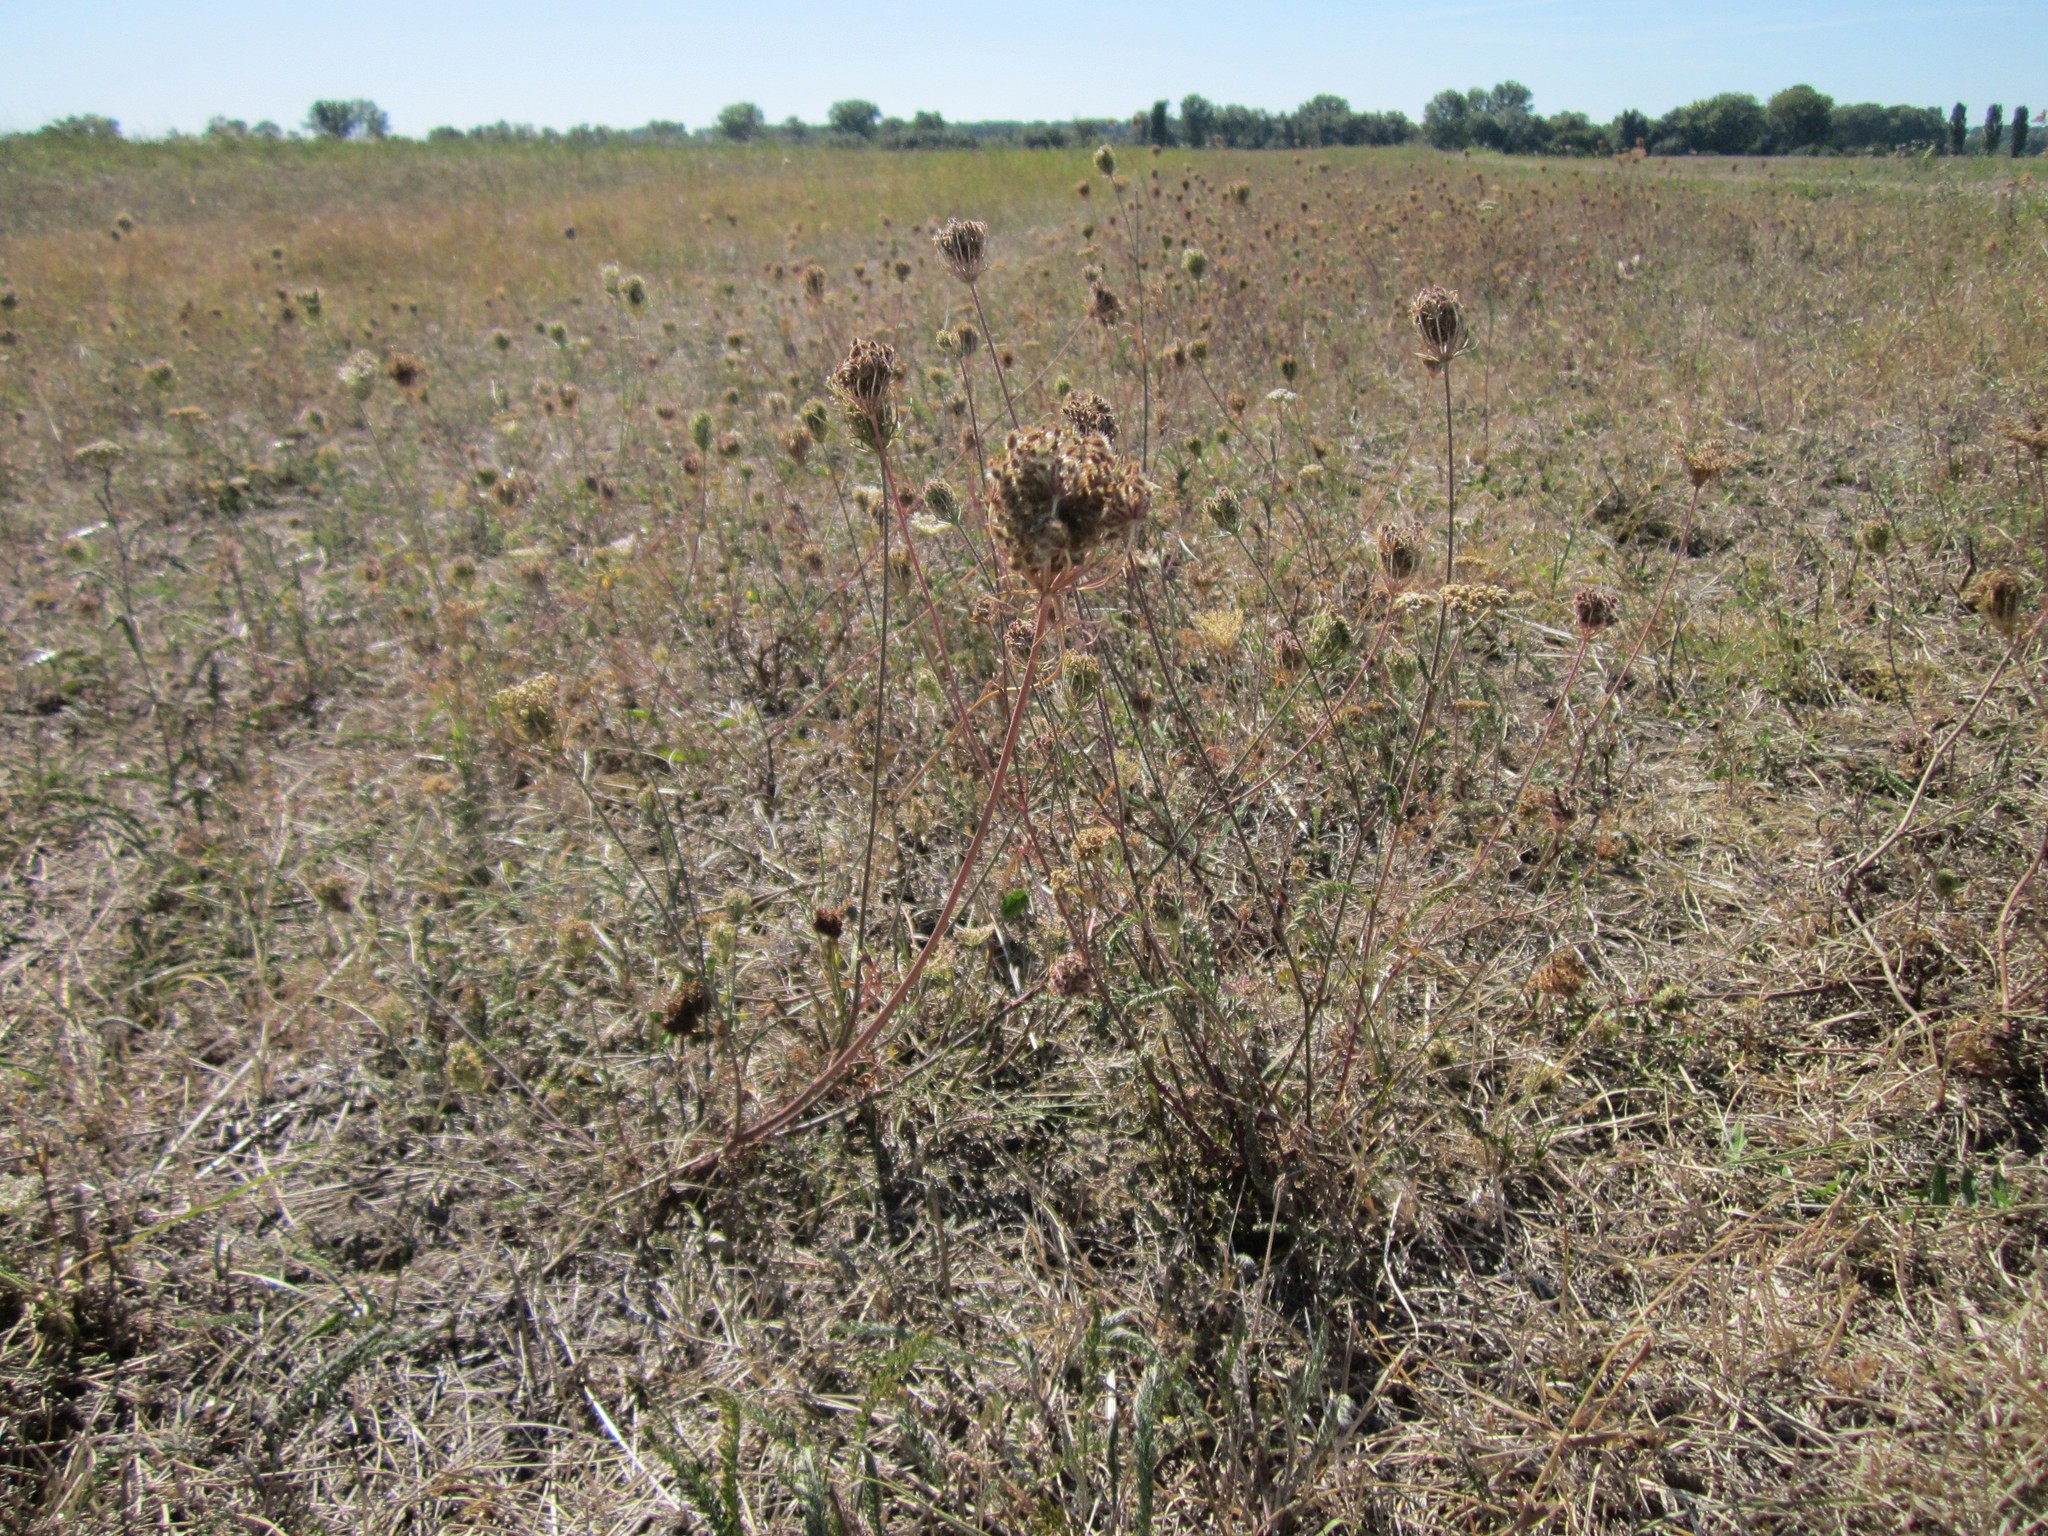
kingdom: Plantae
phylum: Tracheophyta
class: Magnoliopsida
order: Apiales
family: Apiaceae
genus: Daucus
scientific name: Daucus carota
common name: Wild carrot
